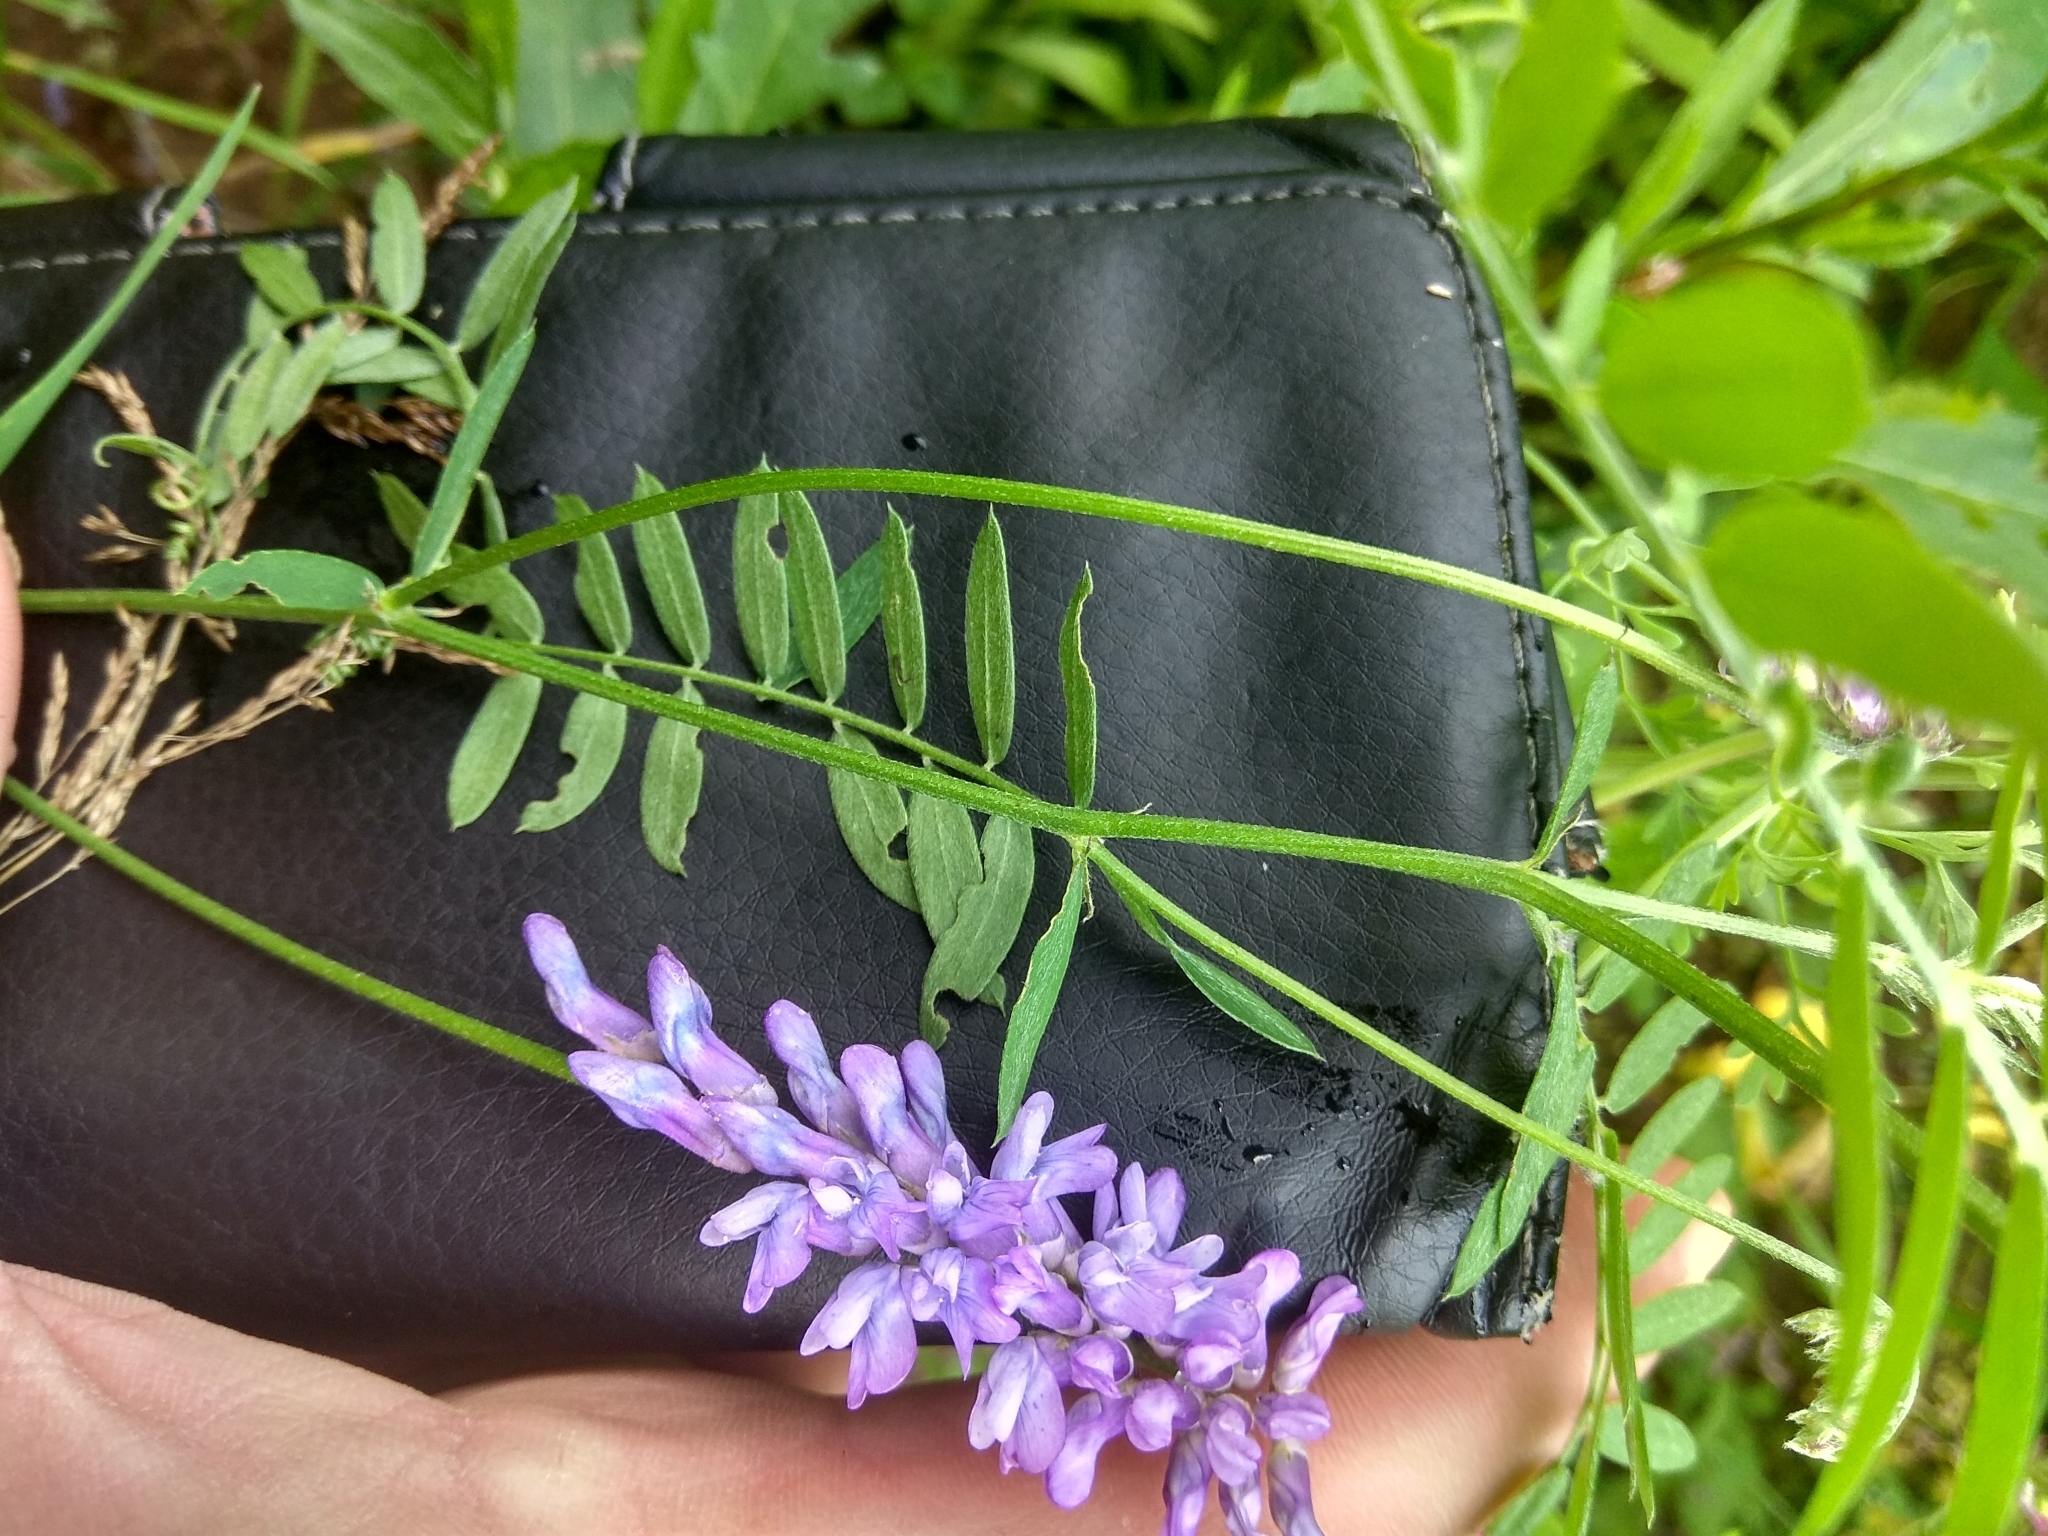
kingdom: Plantae
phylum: Tracheophyta
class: Magnoliopsida
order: Fabales
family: Fabaceae
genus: Vicia
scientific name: Vicia cracca
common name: Bird vetch
